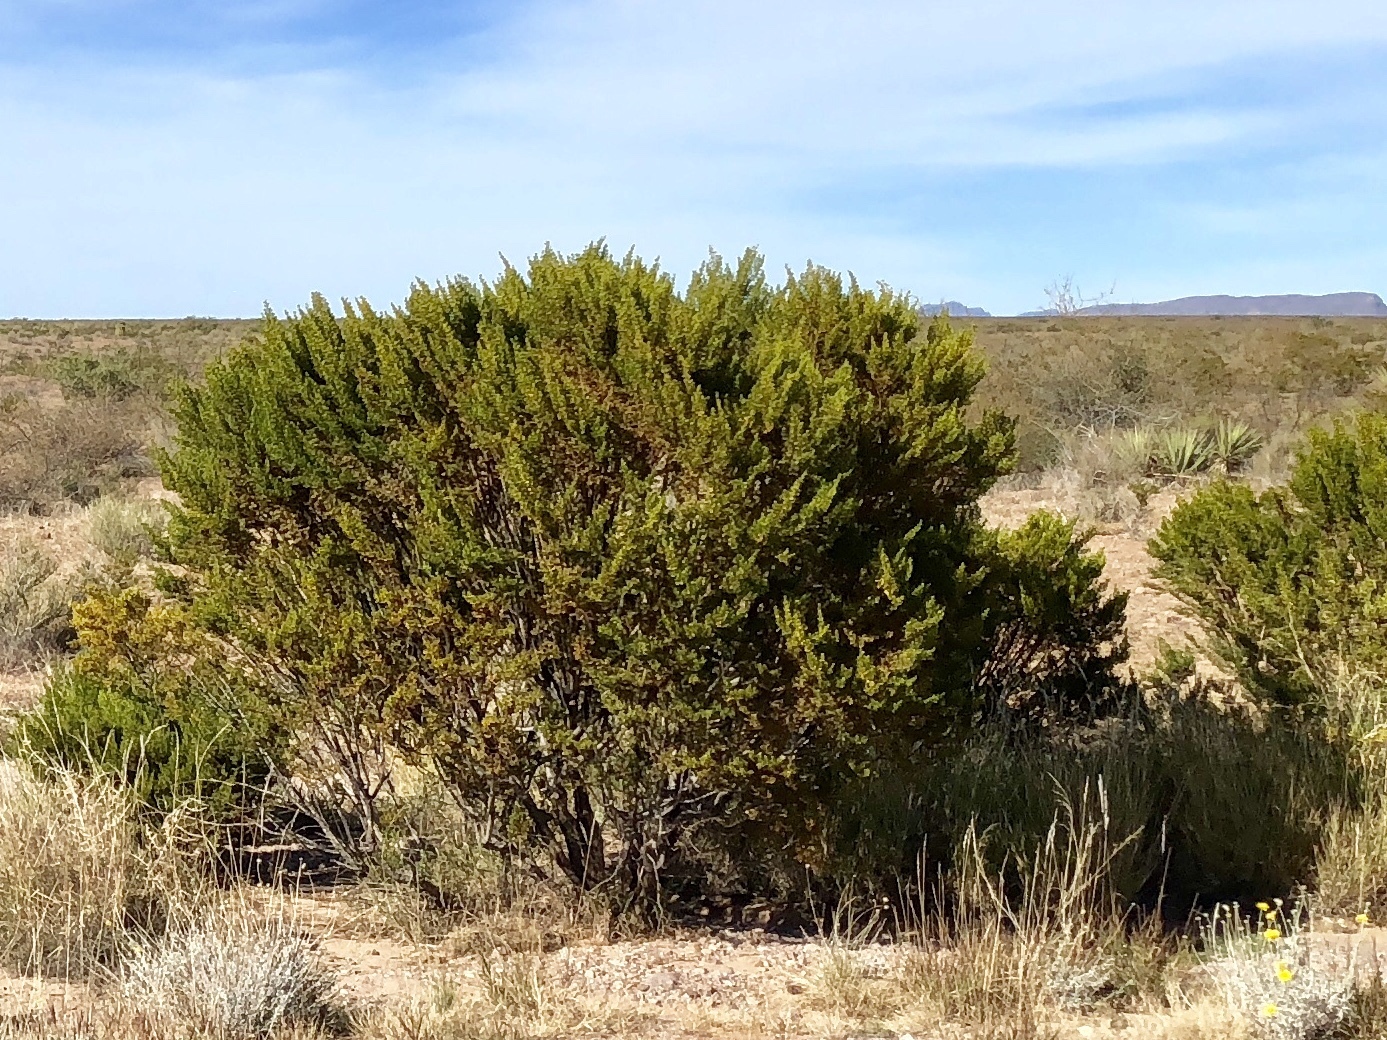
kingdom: Plantae
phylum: Tracheophyta
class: Magnoliopsida
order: Zygophyllales
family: Zygophyllaceae
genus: Larrea
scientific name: Larrea tridentata
